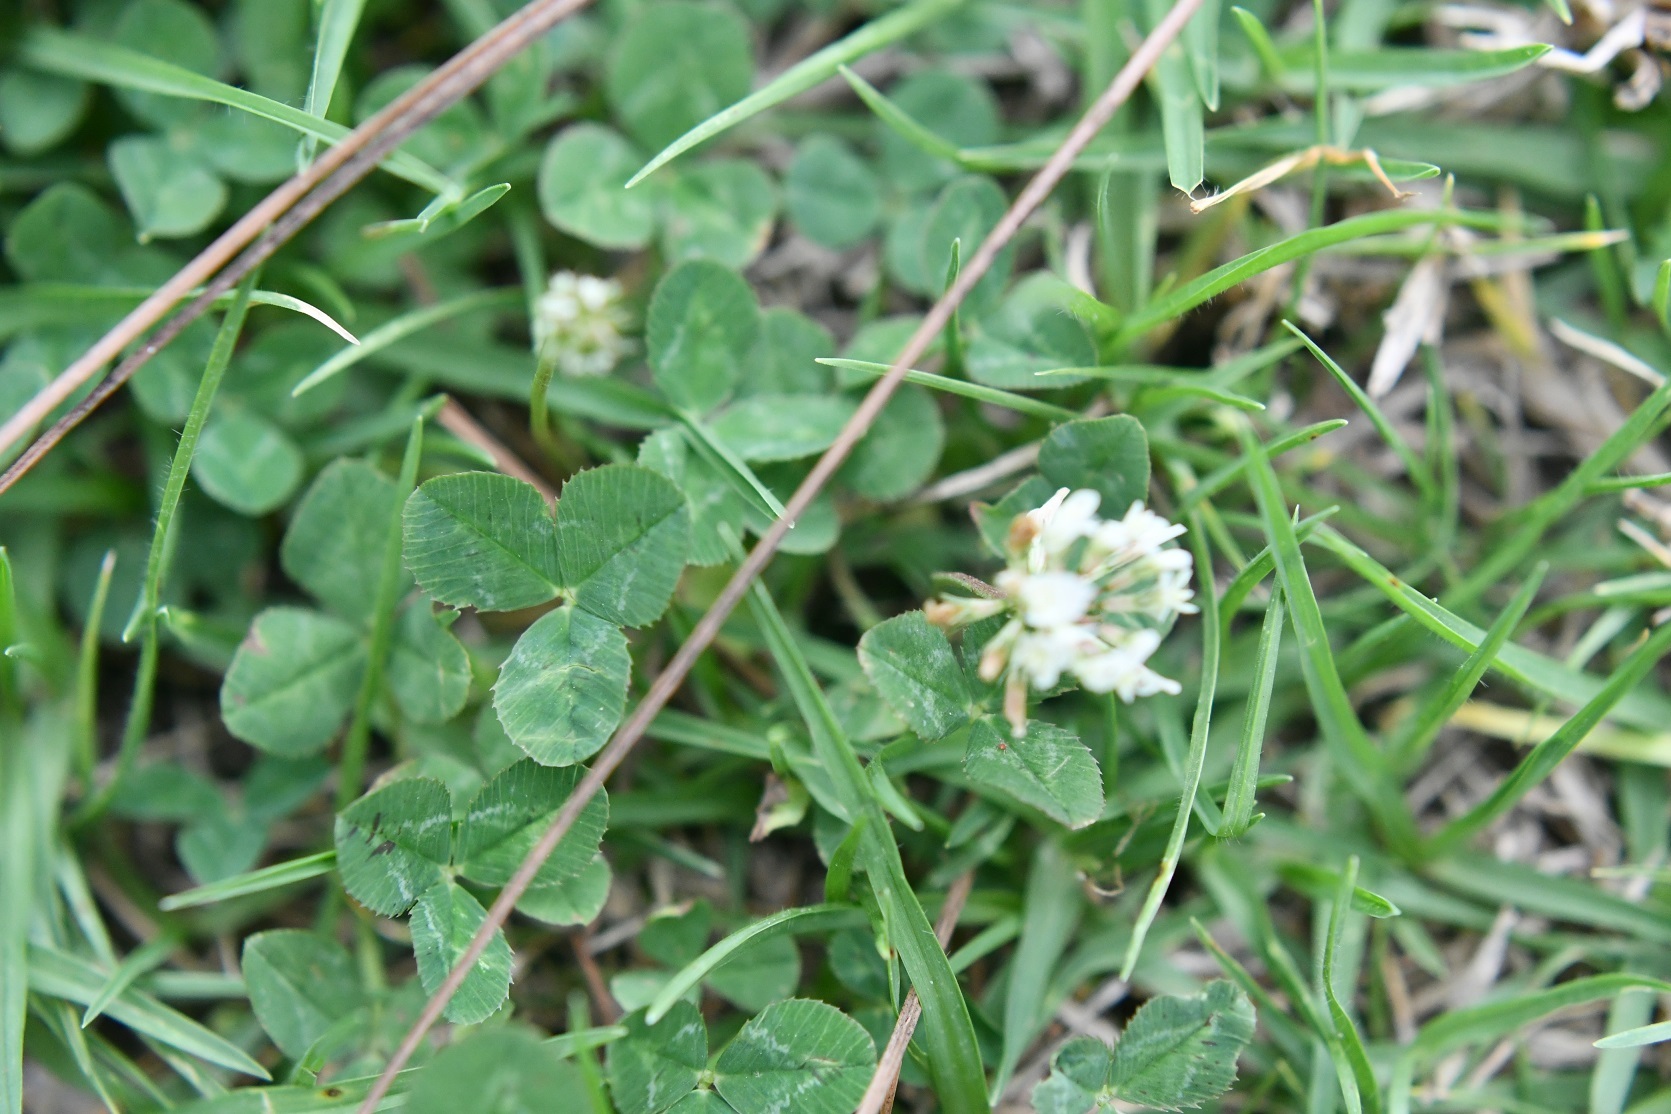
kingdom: Plantae
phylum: Tracheophyta
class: Magnoliopsida
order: Fabales
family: Fabaceae
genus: Trifolium
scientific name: Trifolium repens
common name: White clover
